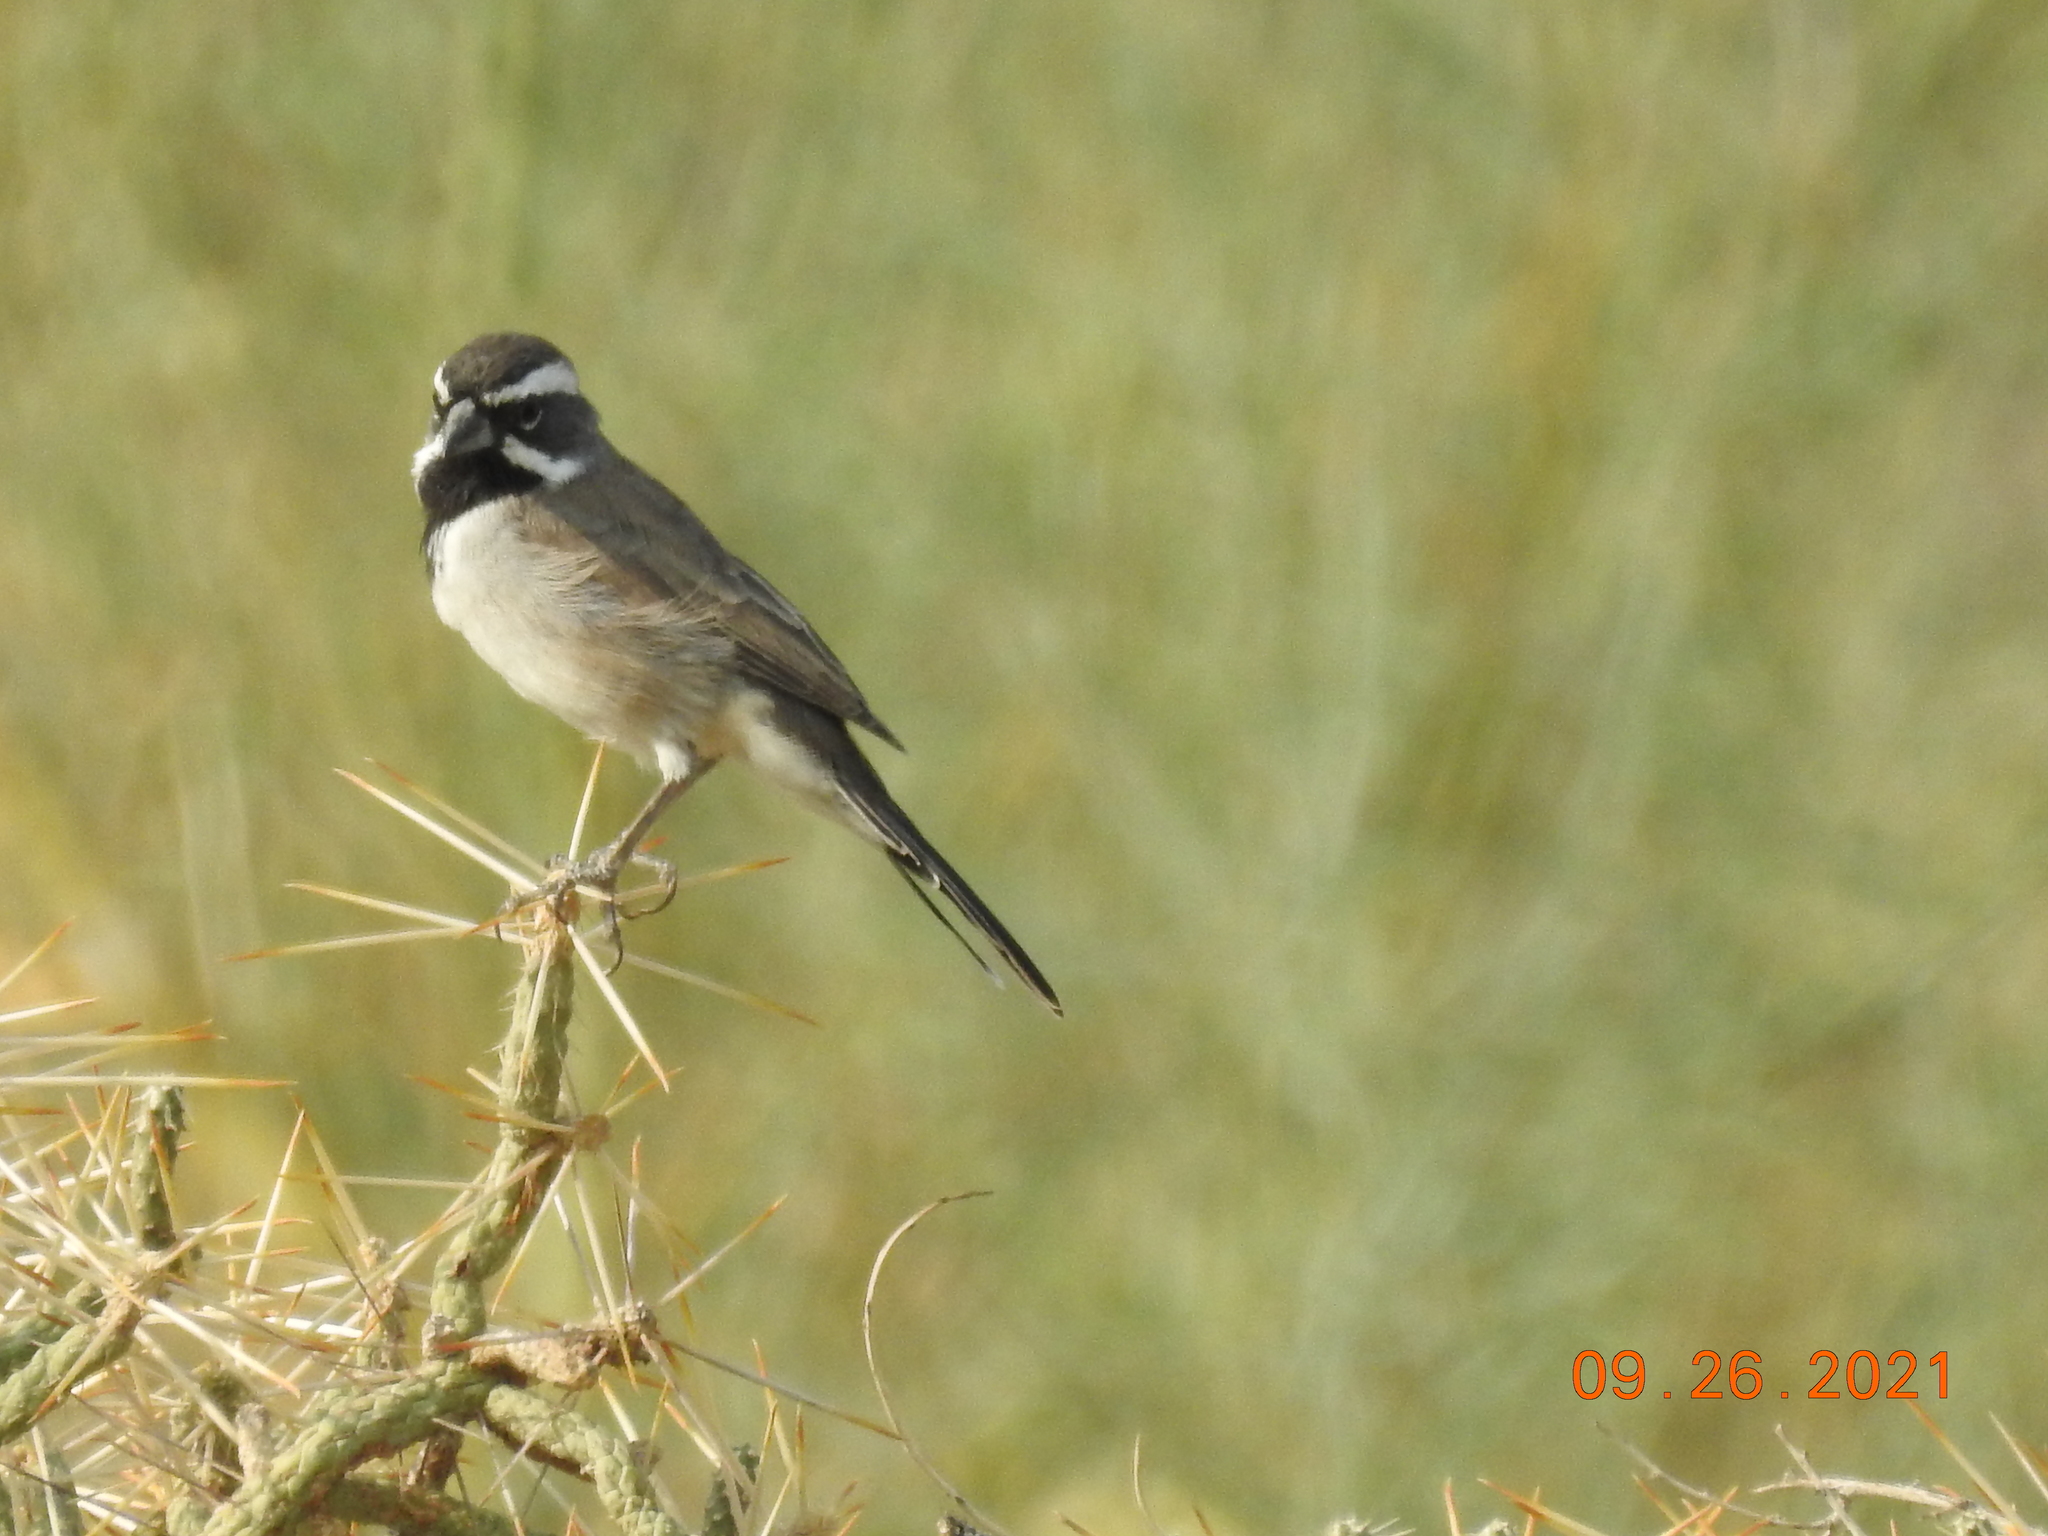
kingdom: Animalia
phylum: Chordata
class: Aves
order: Passeriformes
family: Passerellidae
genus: Amphispiza
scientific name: Amphispiza bilineata
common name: Black-throated sparrow
